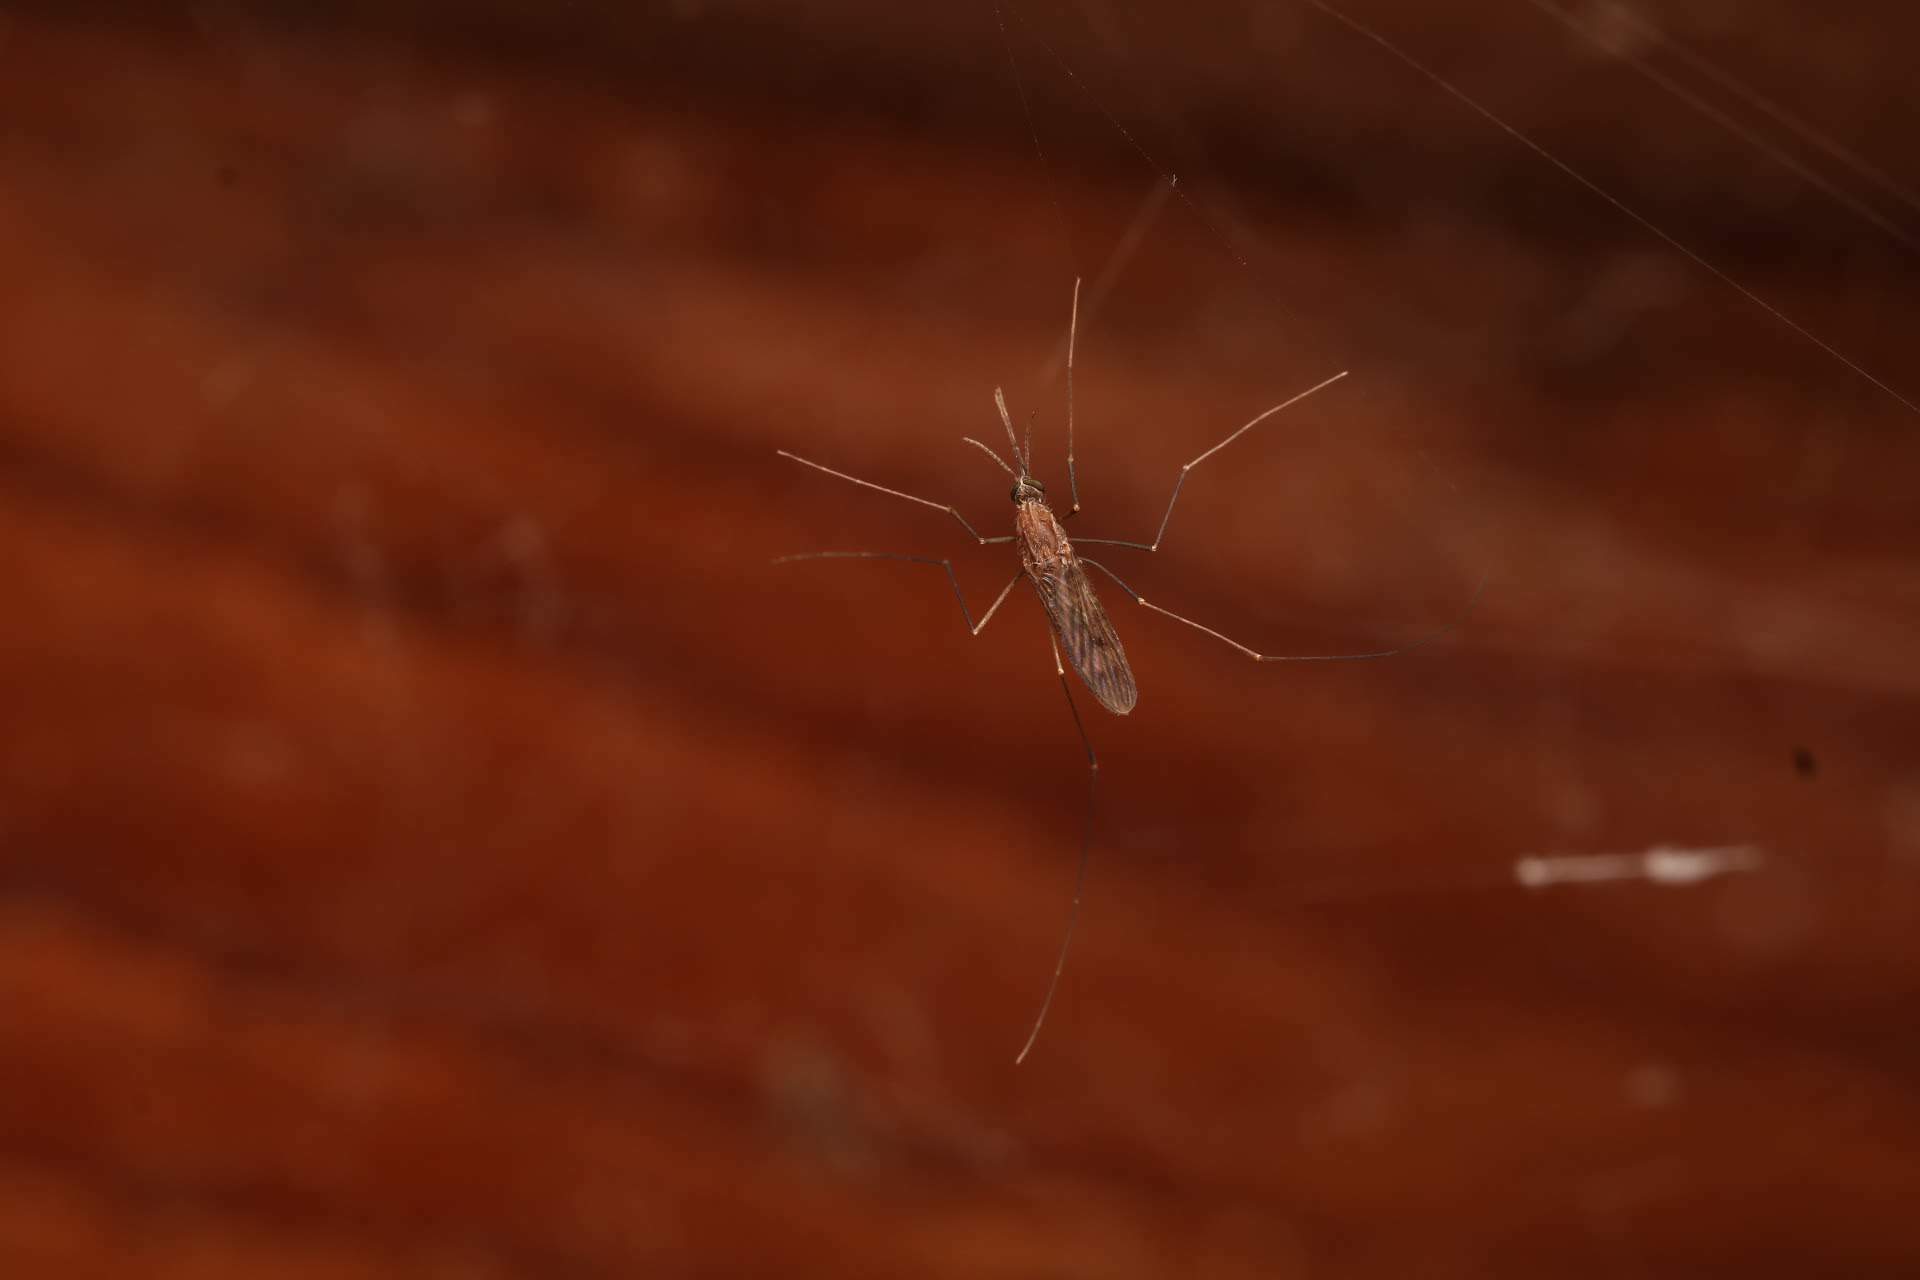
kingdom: Animalia
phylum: Arthropoda
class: Insecta
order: Diptera
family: Culicidae
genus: Anopheles
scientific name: Anopheles
